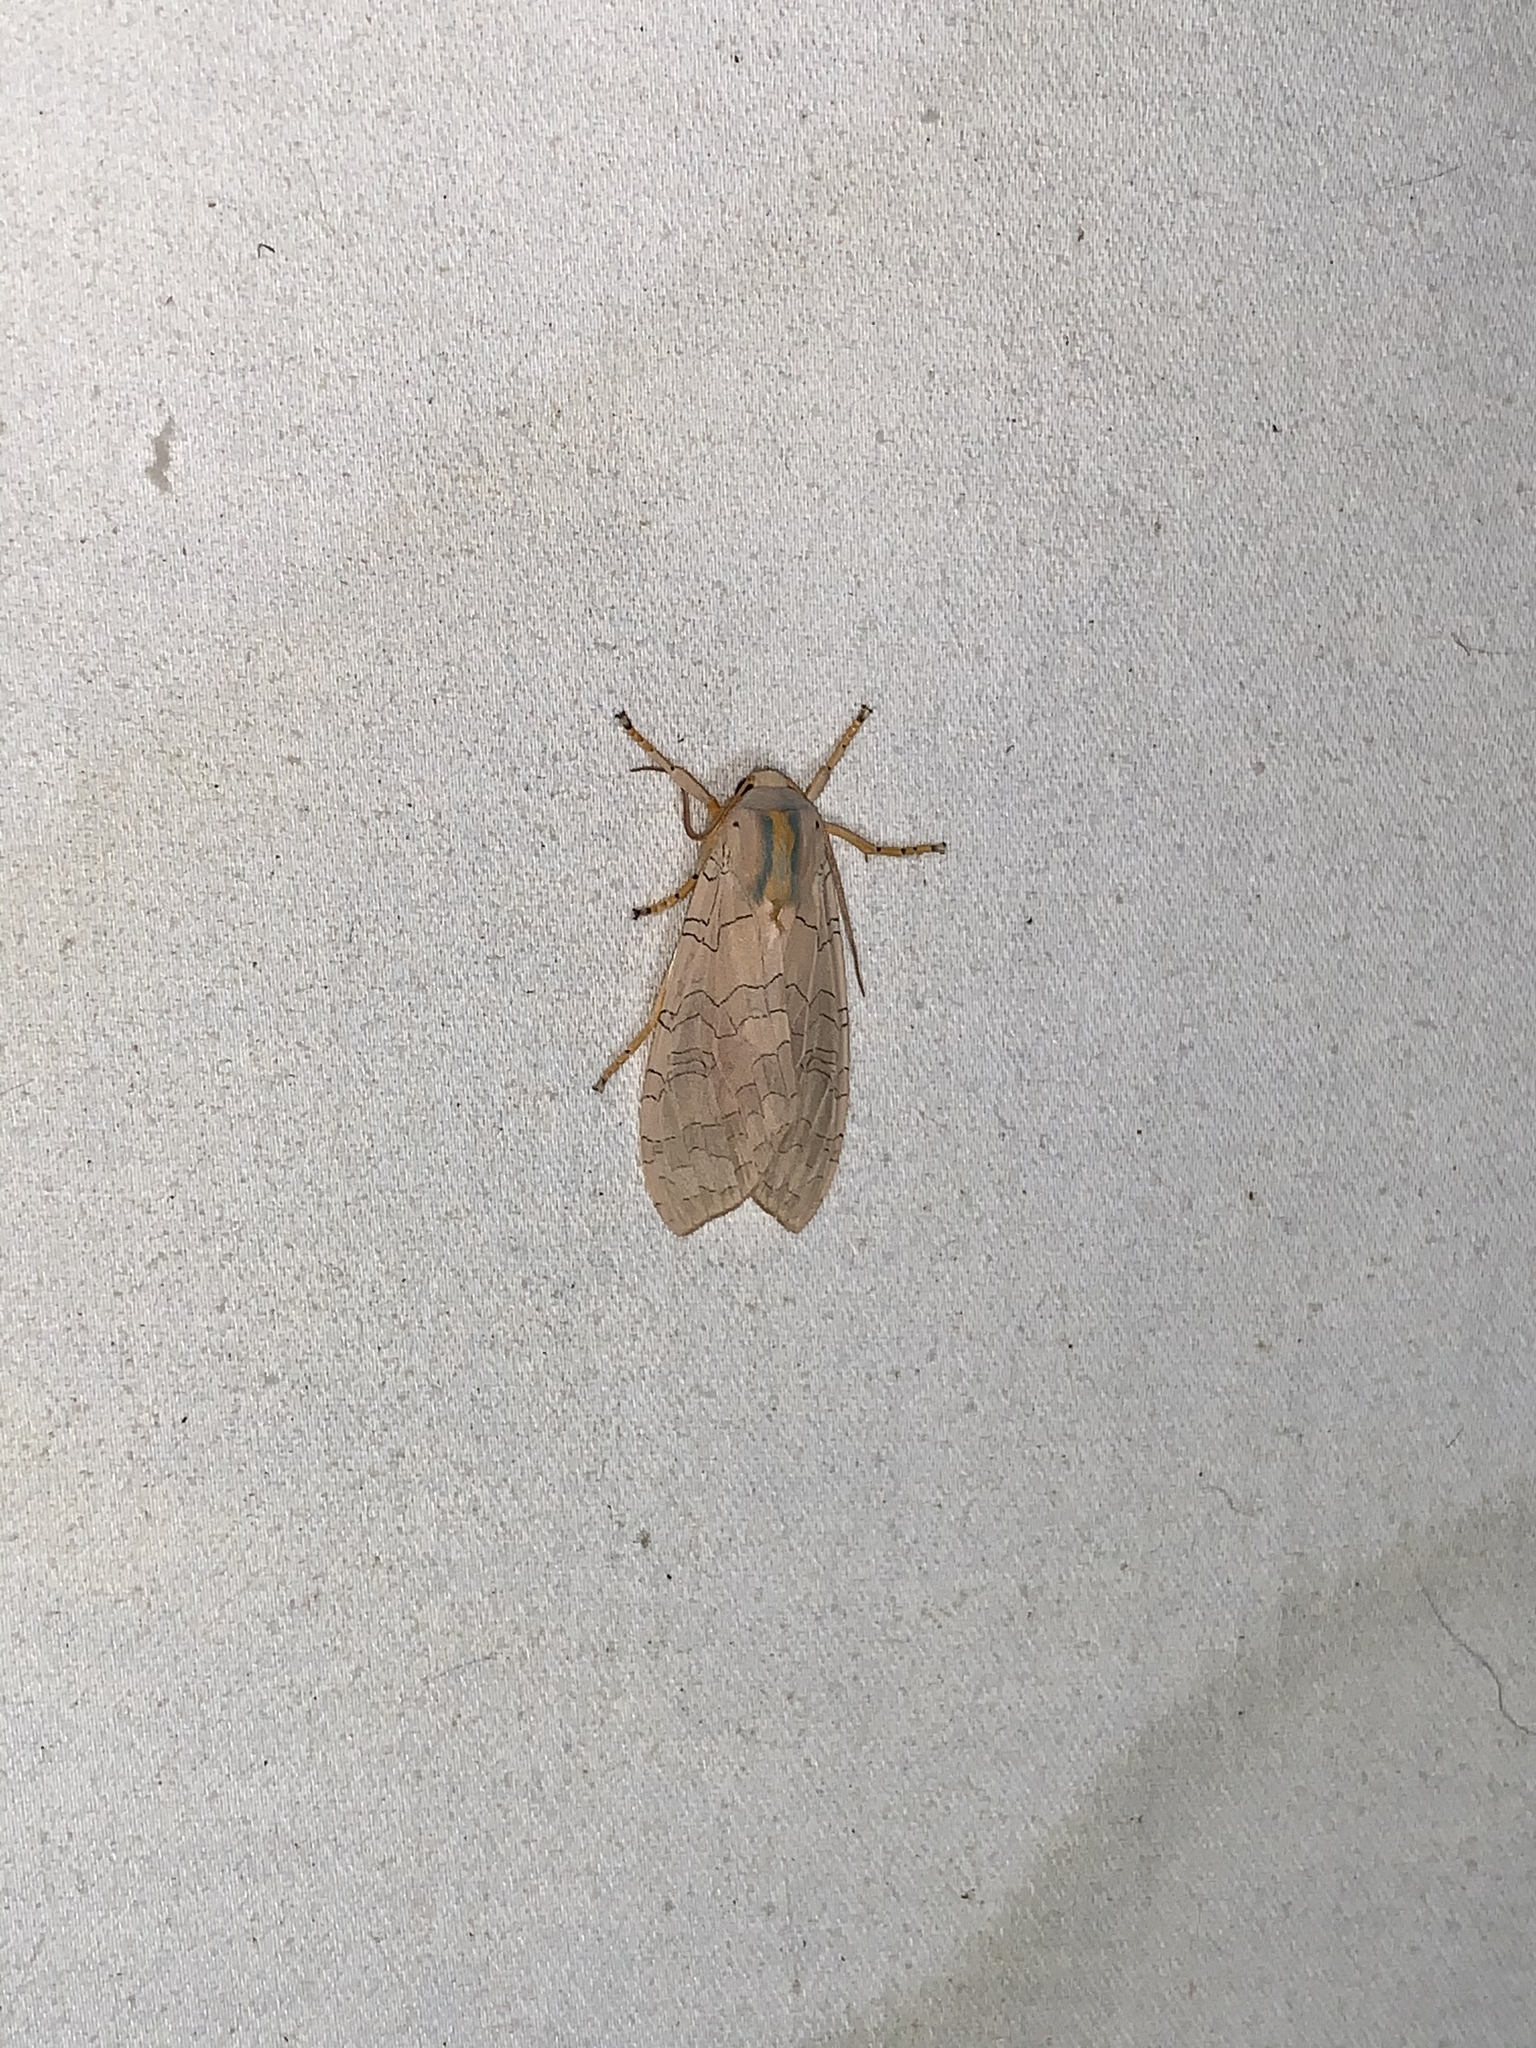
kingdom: Animalia
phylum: Arthropoda
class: Insecta
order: Lepidoptera
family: Erebidae
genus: Halysidota
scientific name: Halysidota
